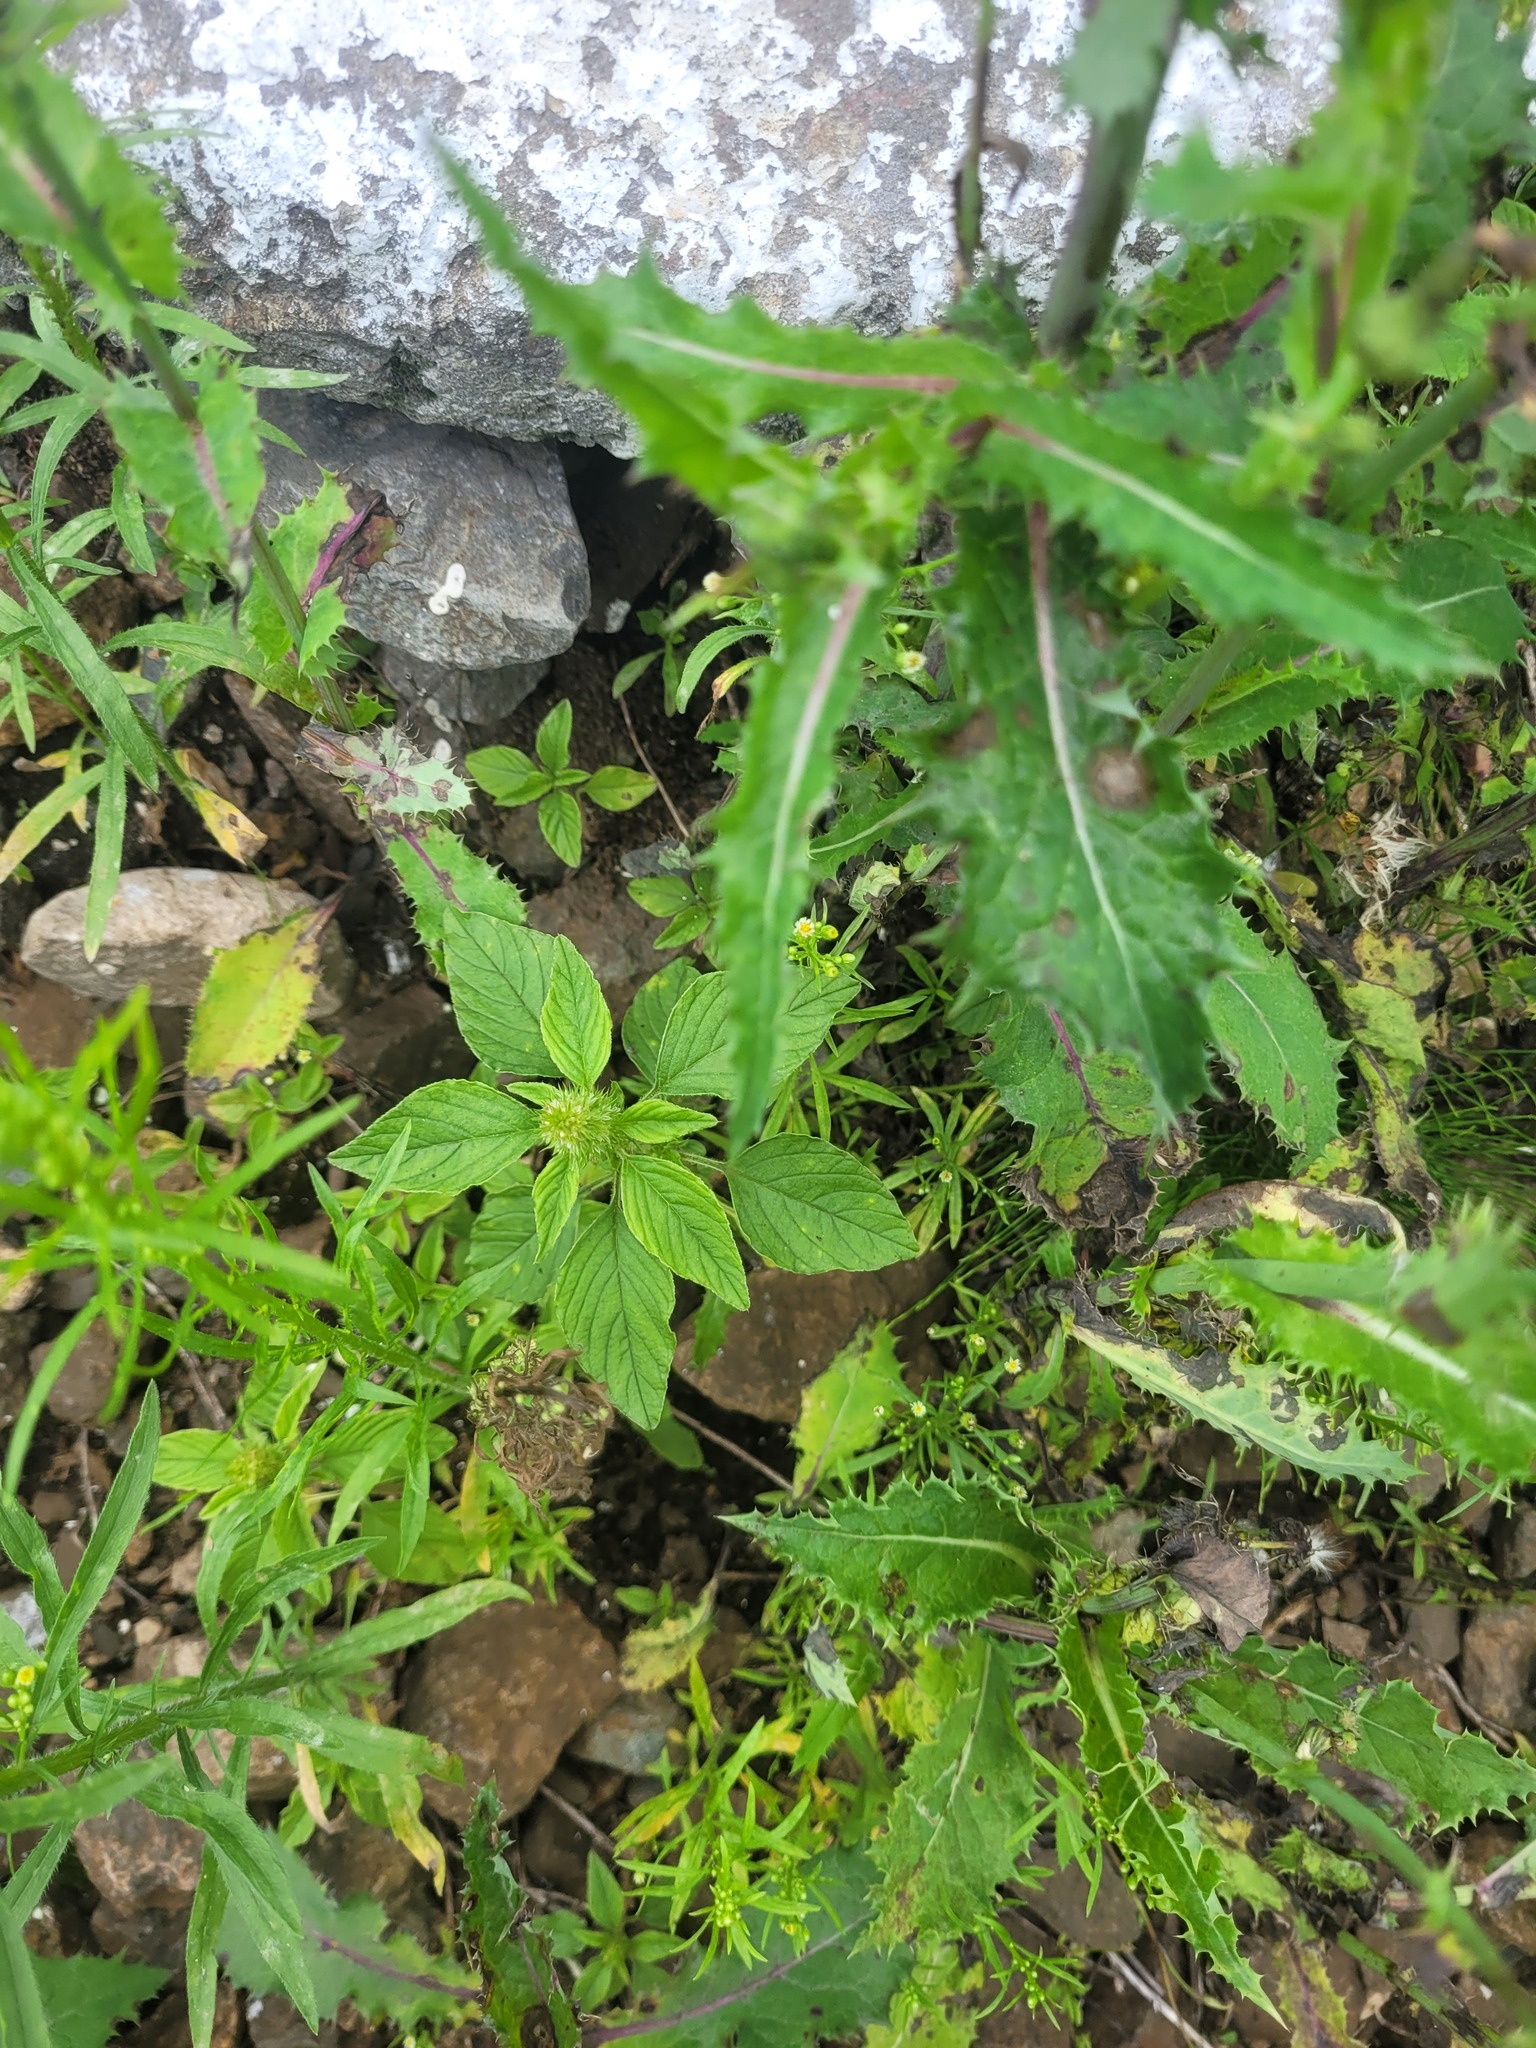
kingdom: Plantae
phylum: Tracheophyta
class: Magnoliopsida
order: Caryophyllales
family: Amaranthaceae
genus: Amaranthus
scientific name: Amaranthus retroflexus
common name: Redroot amaranth
